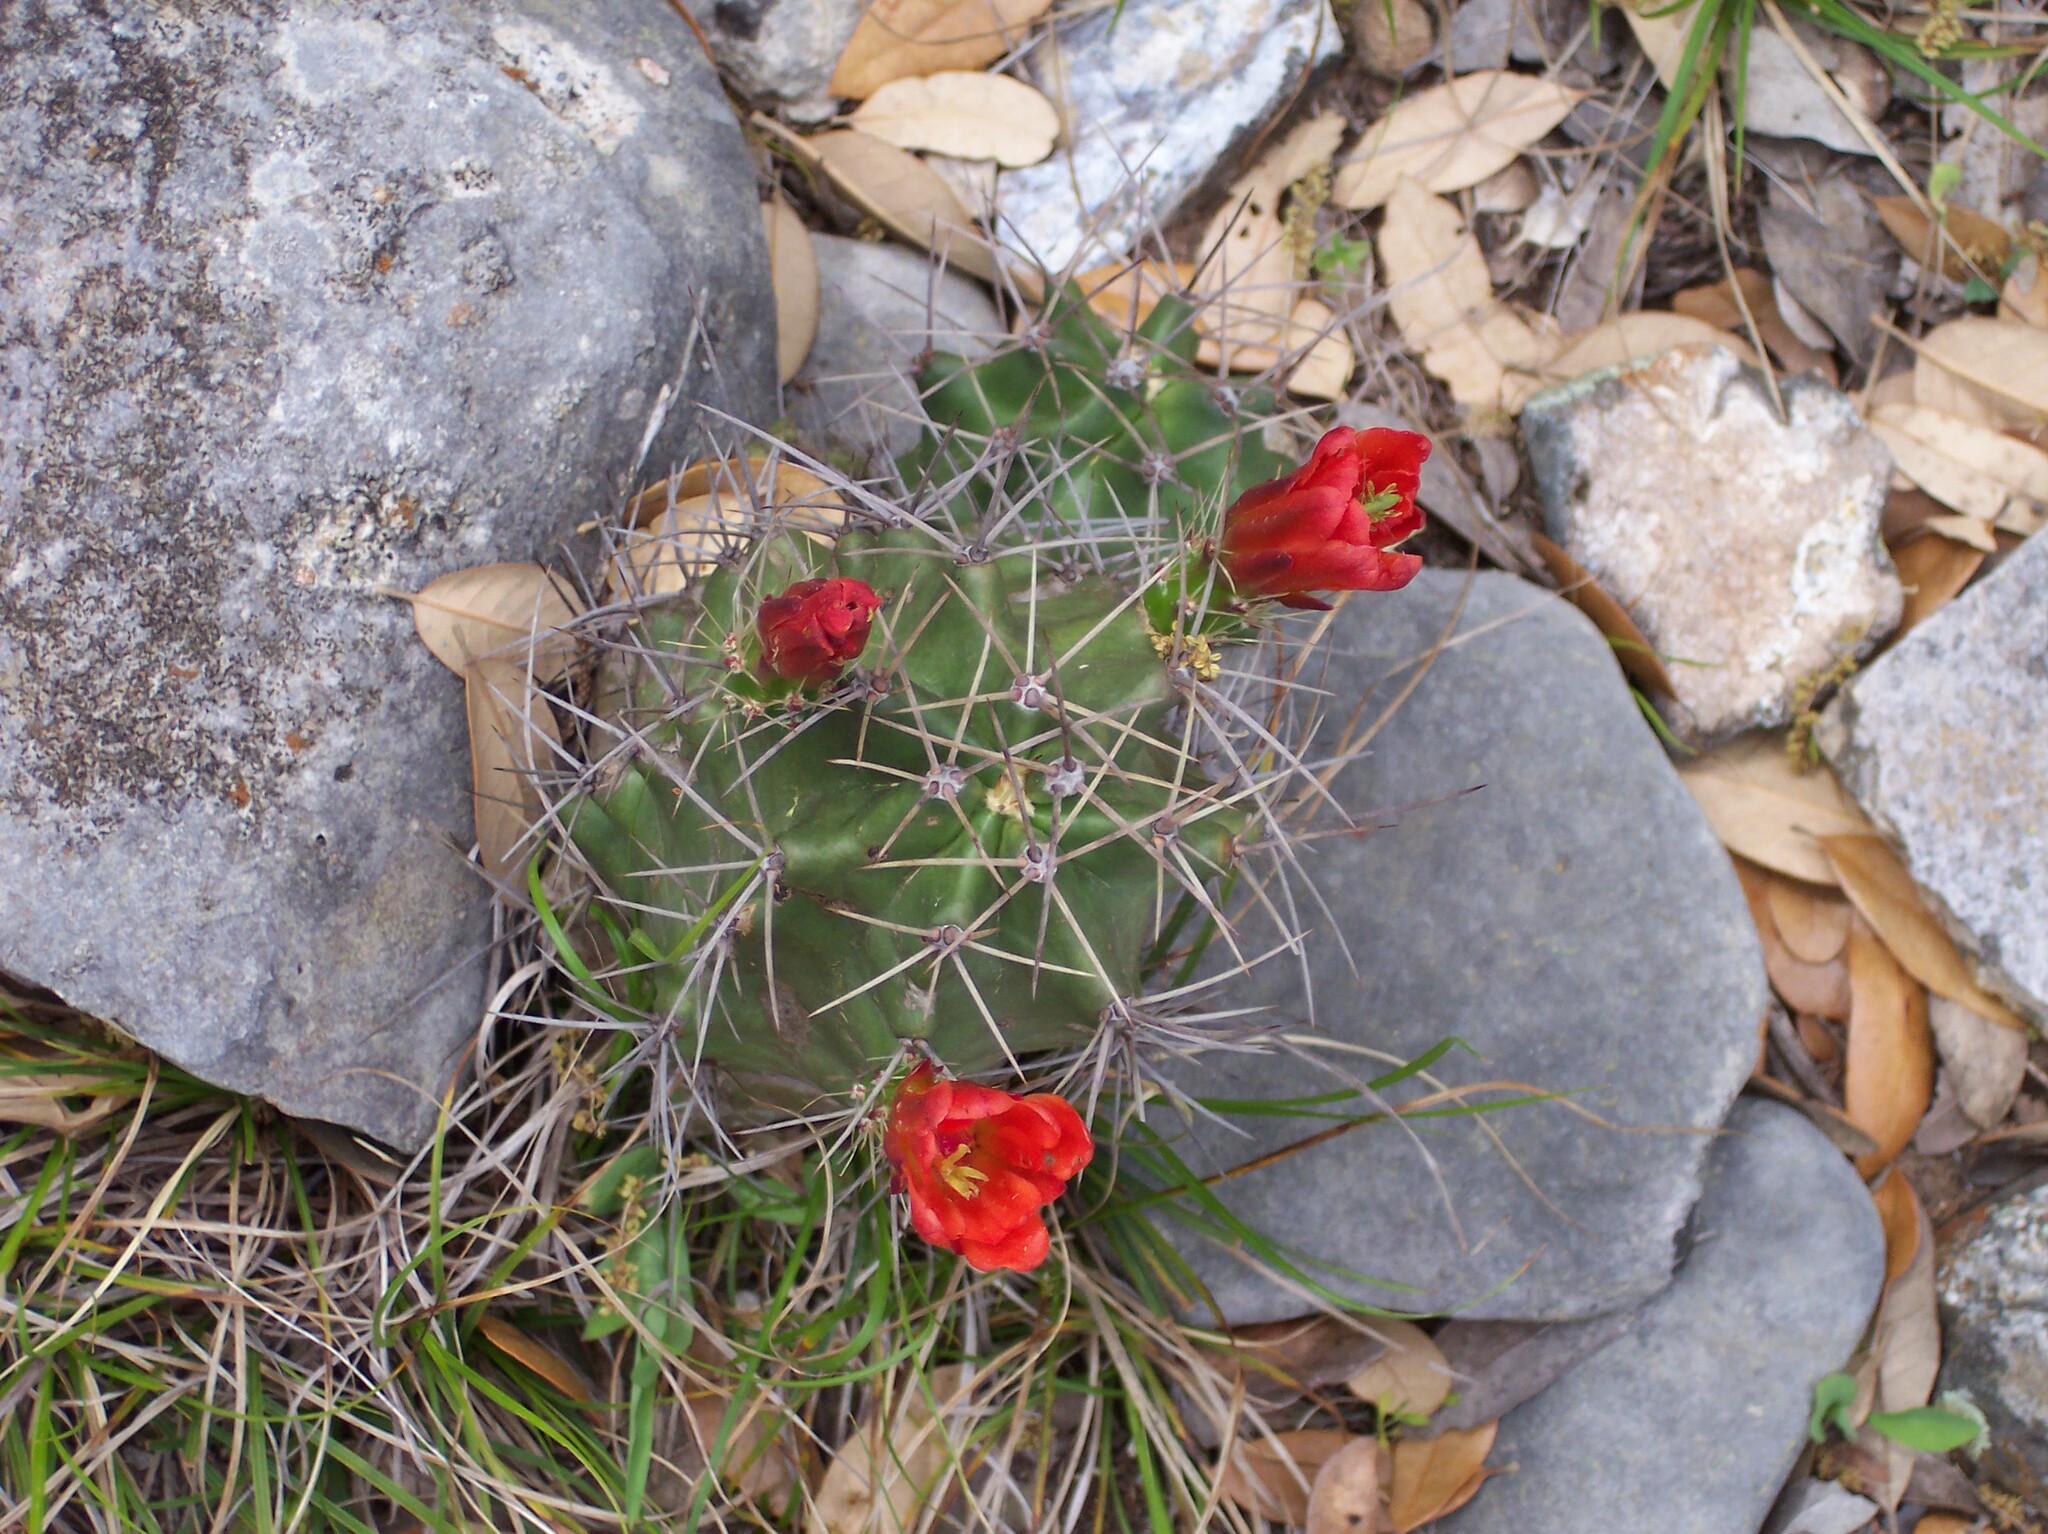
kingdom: Plantae
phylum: Tracheophyta
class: Magnoliopsida
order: Caryophyllales
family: Cactaceae
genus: Echinocereus
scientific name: Echinocereus coccineus
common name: Scarlet hedgehog cactus
